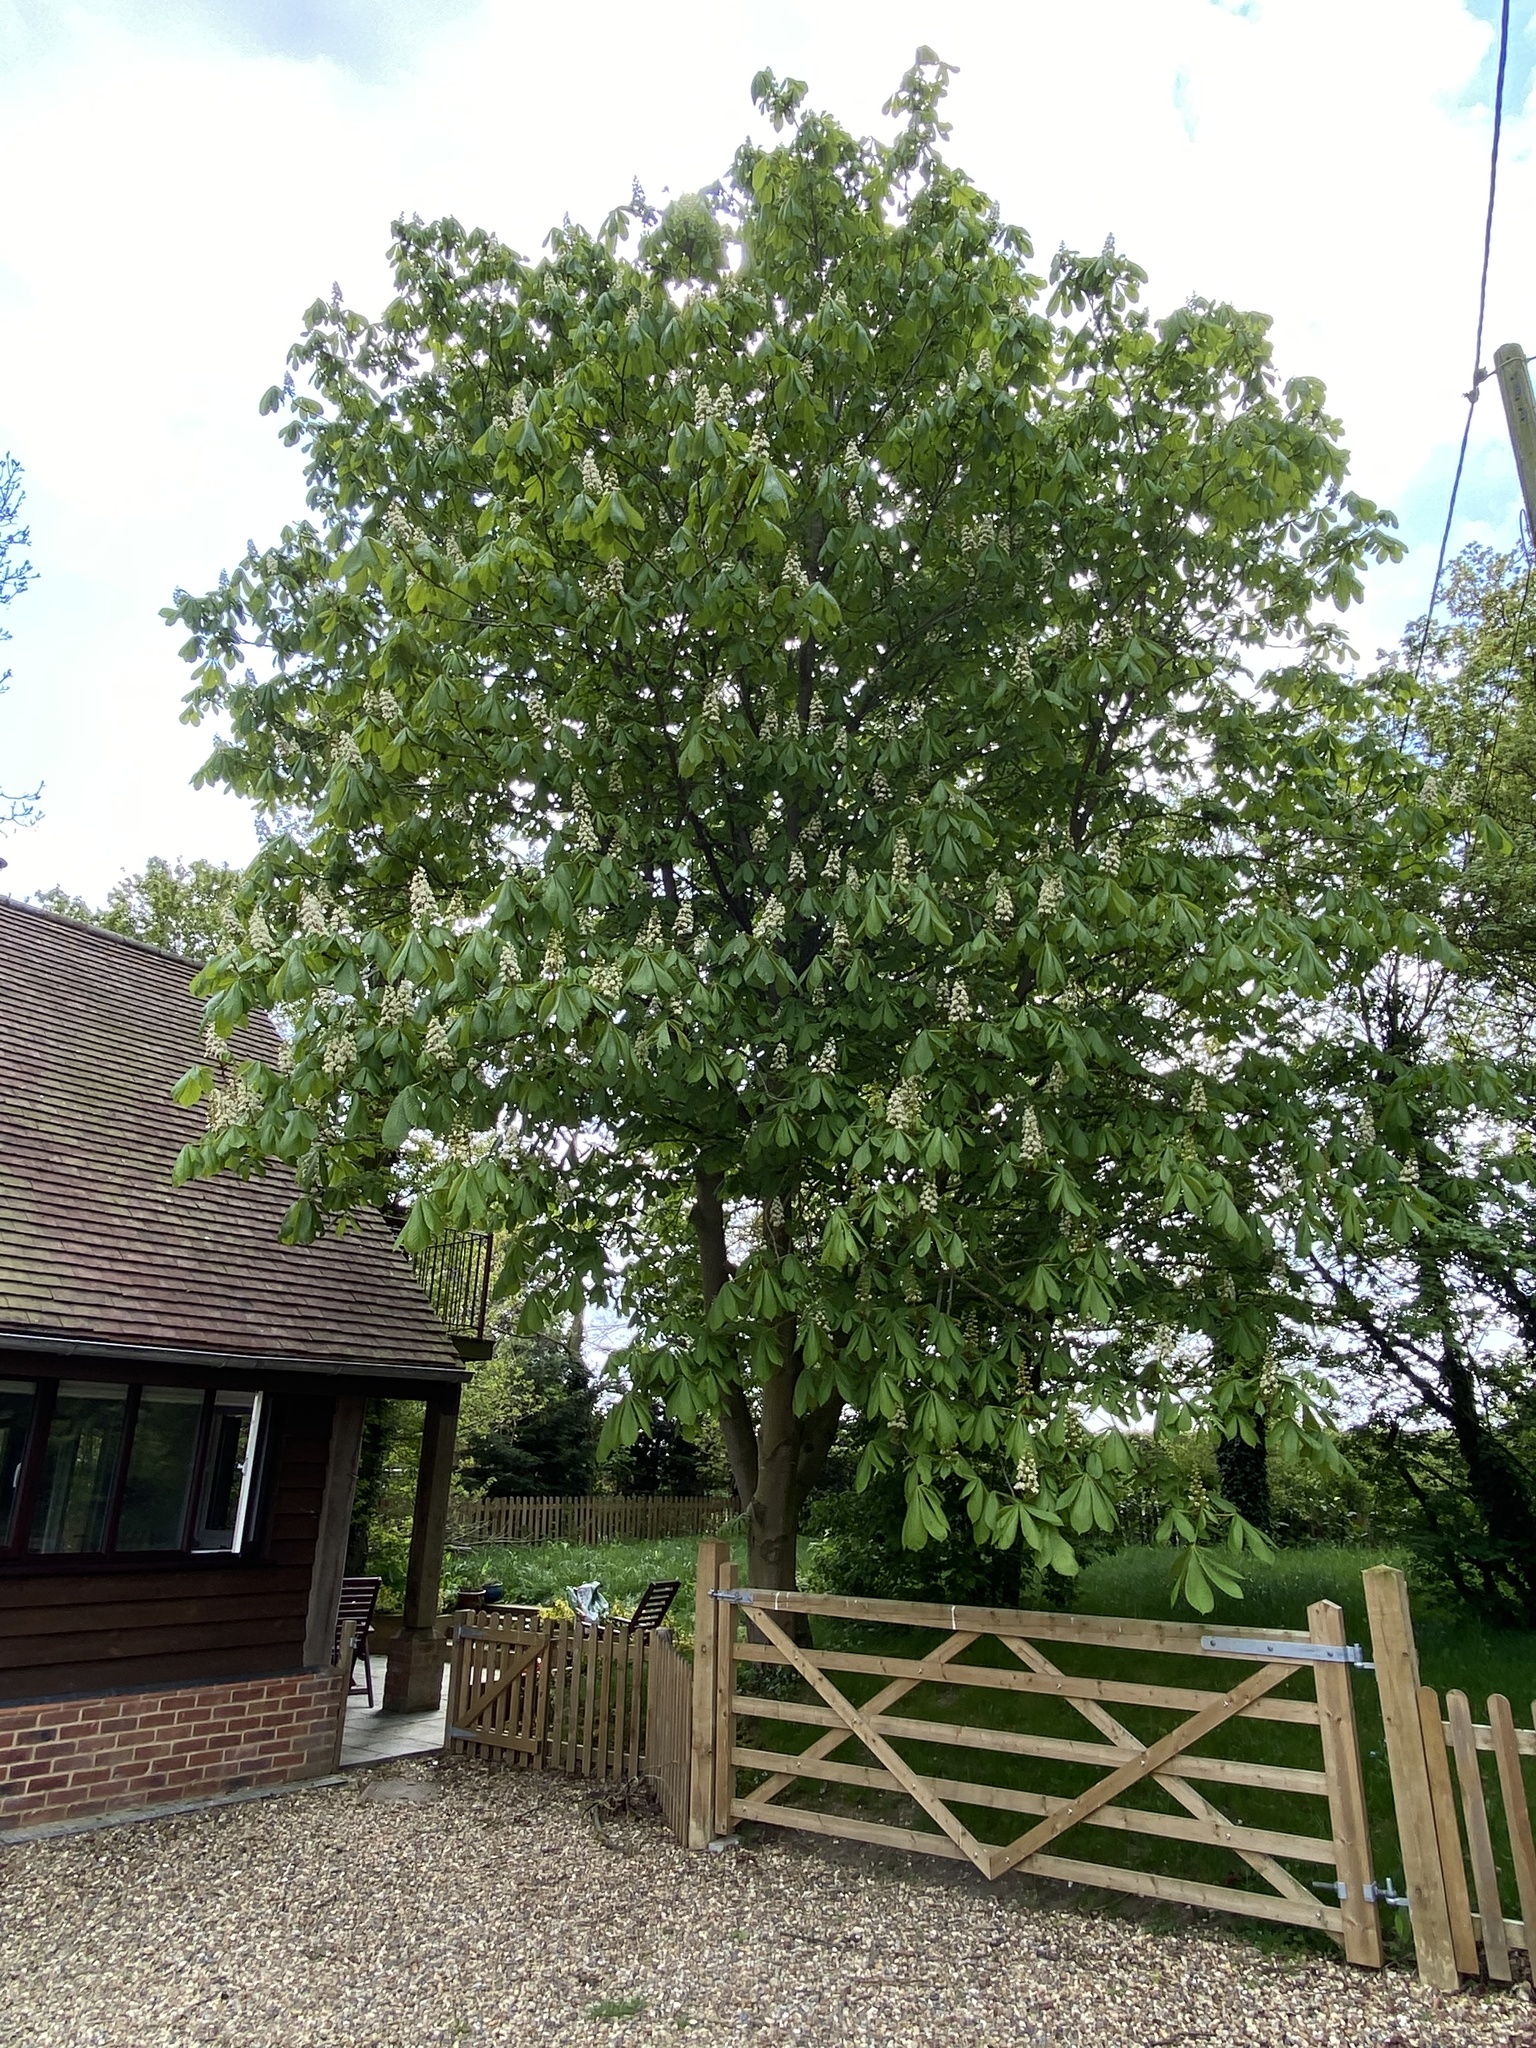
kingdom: Plantae
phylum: Tracheophyta
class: Magnoliopsida
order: Sapindales
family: Sapindaceae
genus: Aesculus
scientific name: Aesculus hippocastanum
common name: Horse-chestnut
